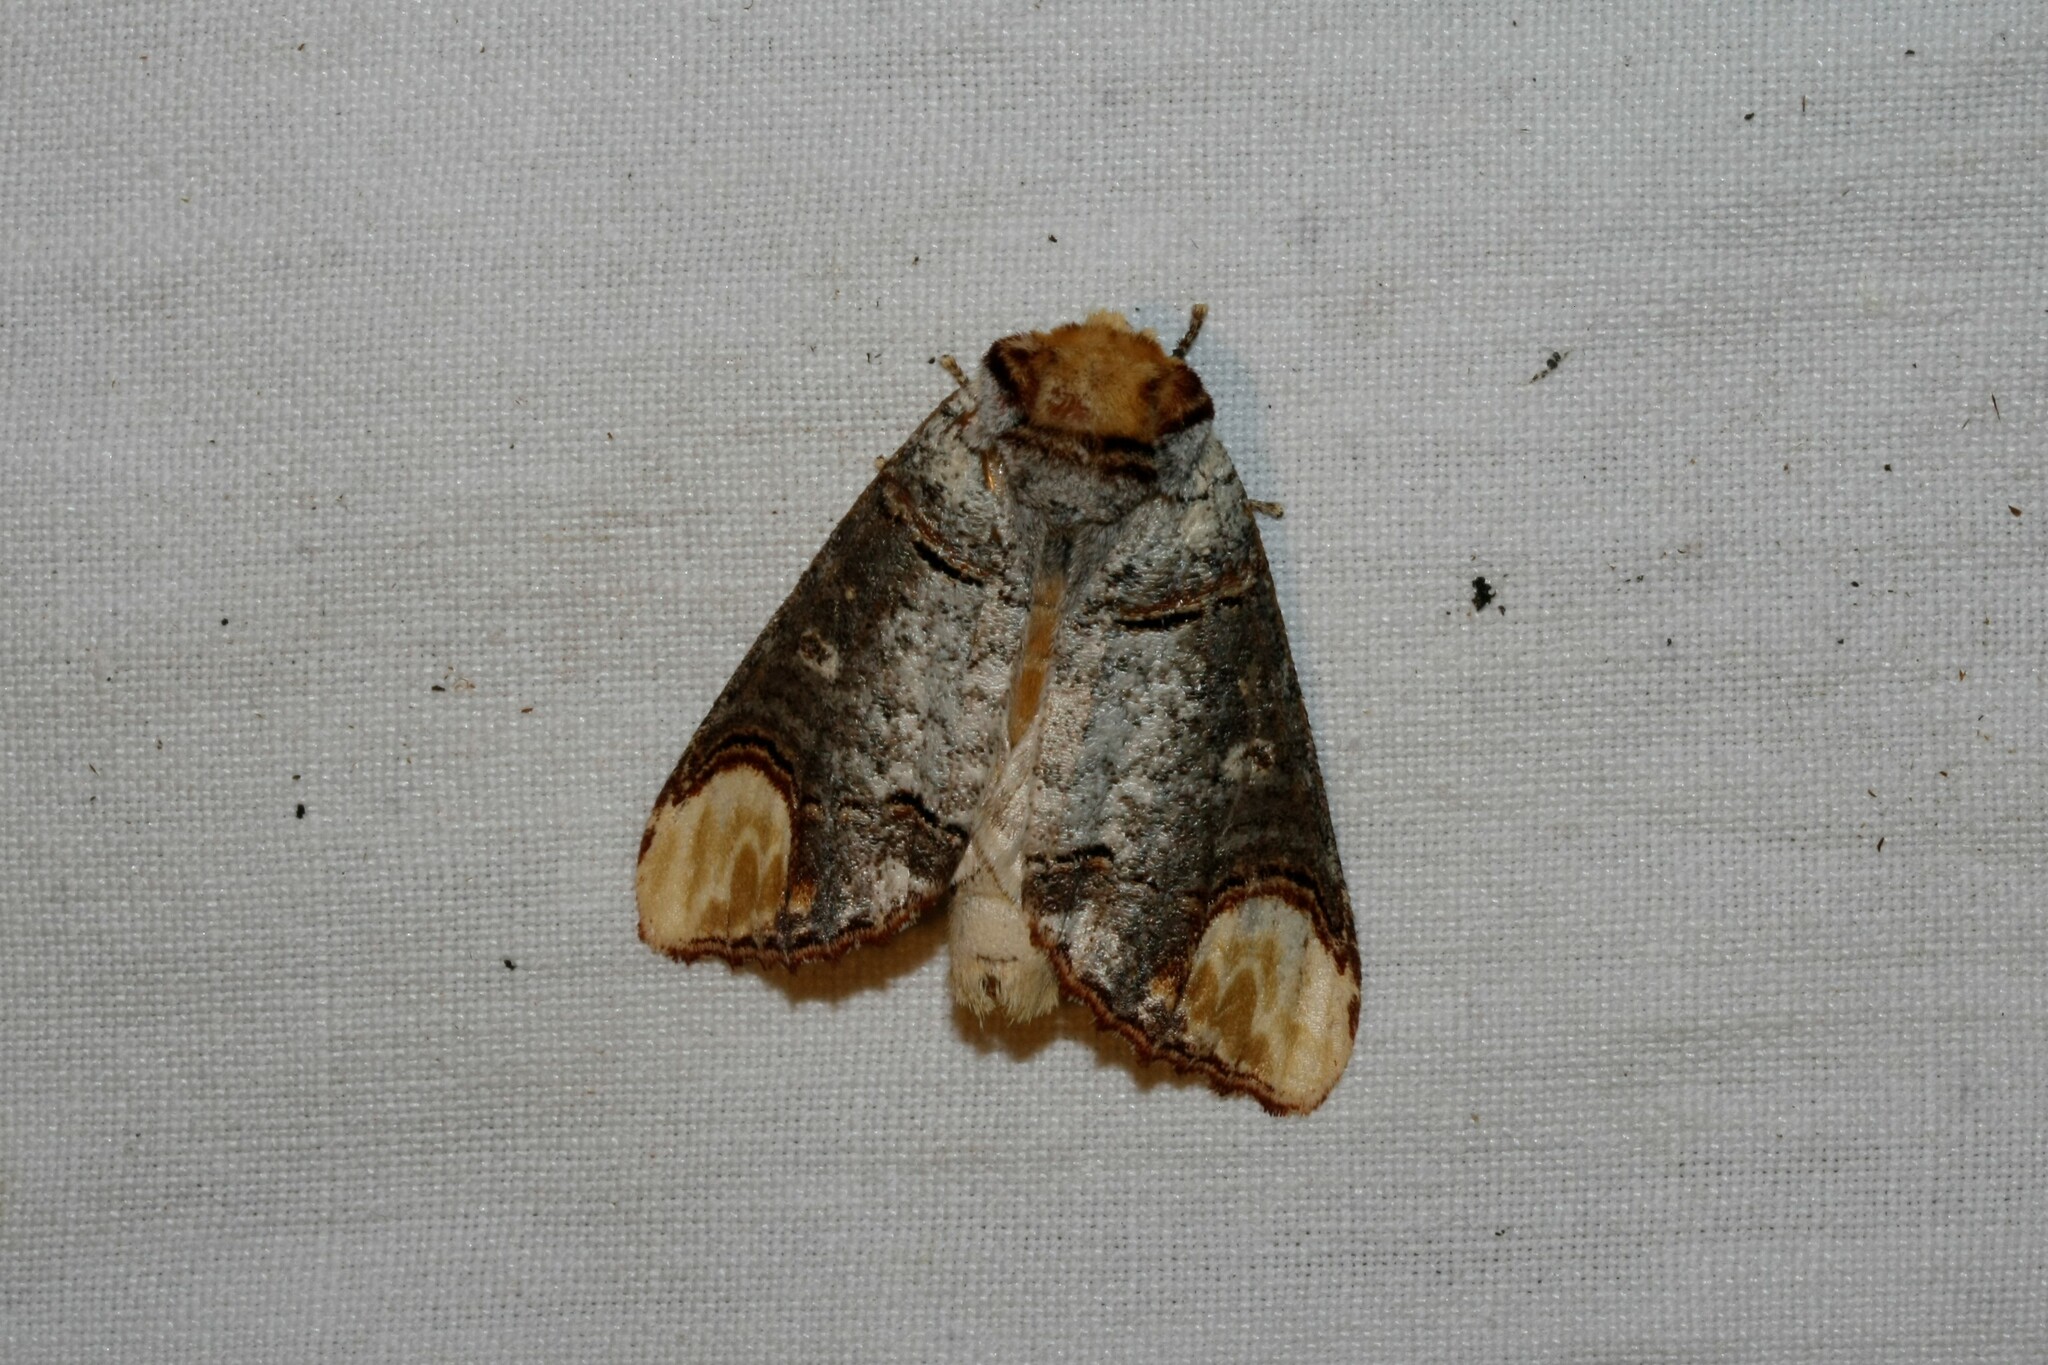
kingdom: Animalia
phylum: Arthropoda
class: Insecta
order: Lepidoptera
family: Notodontidae
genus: Phalera
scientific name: Phalera bucephala
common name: Buff-tip
